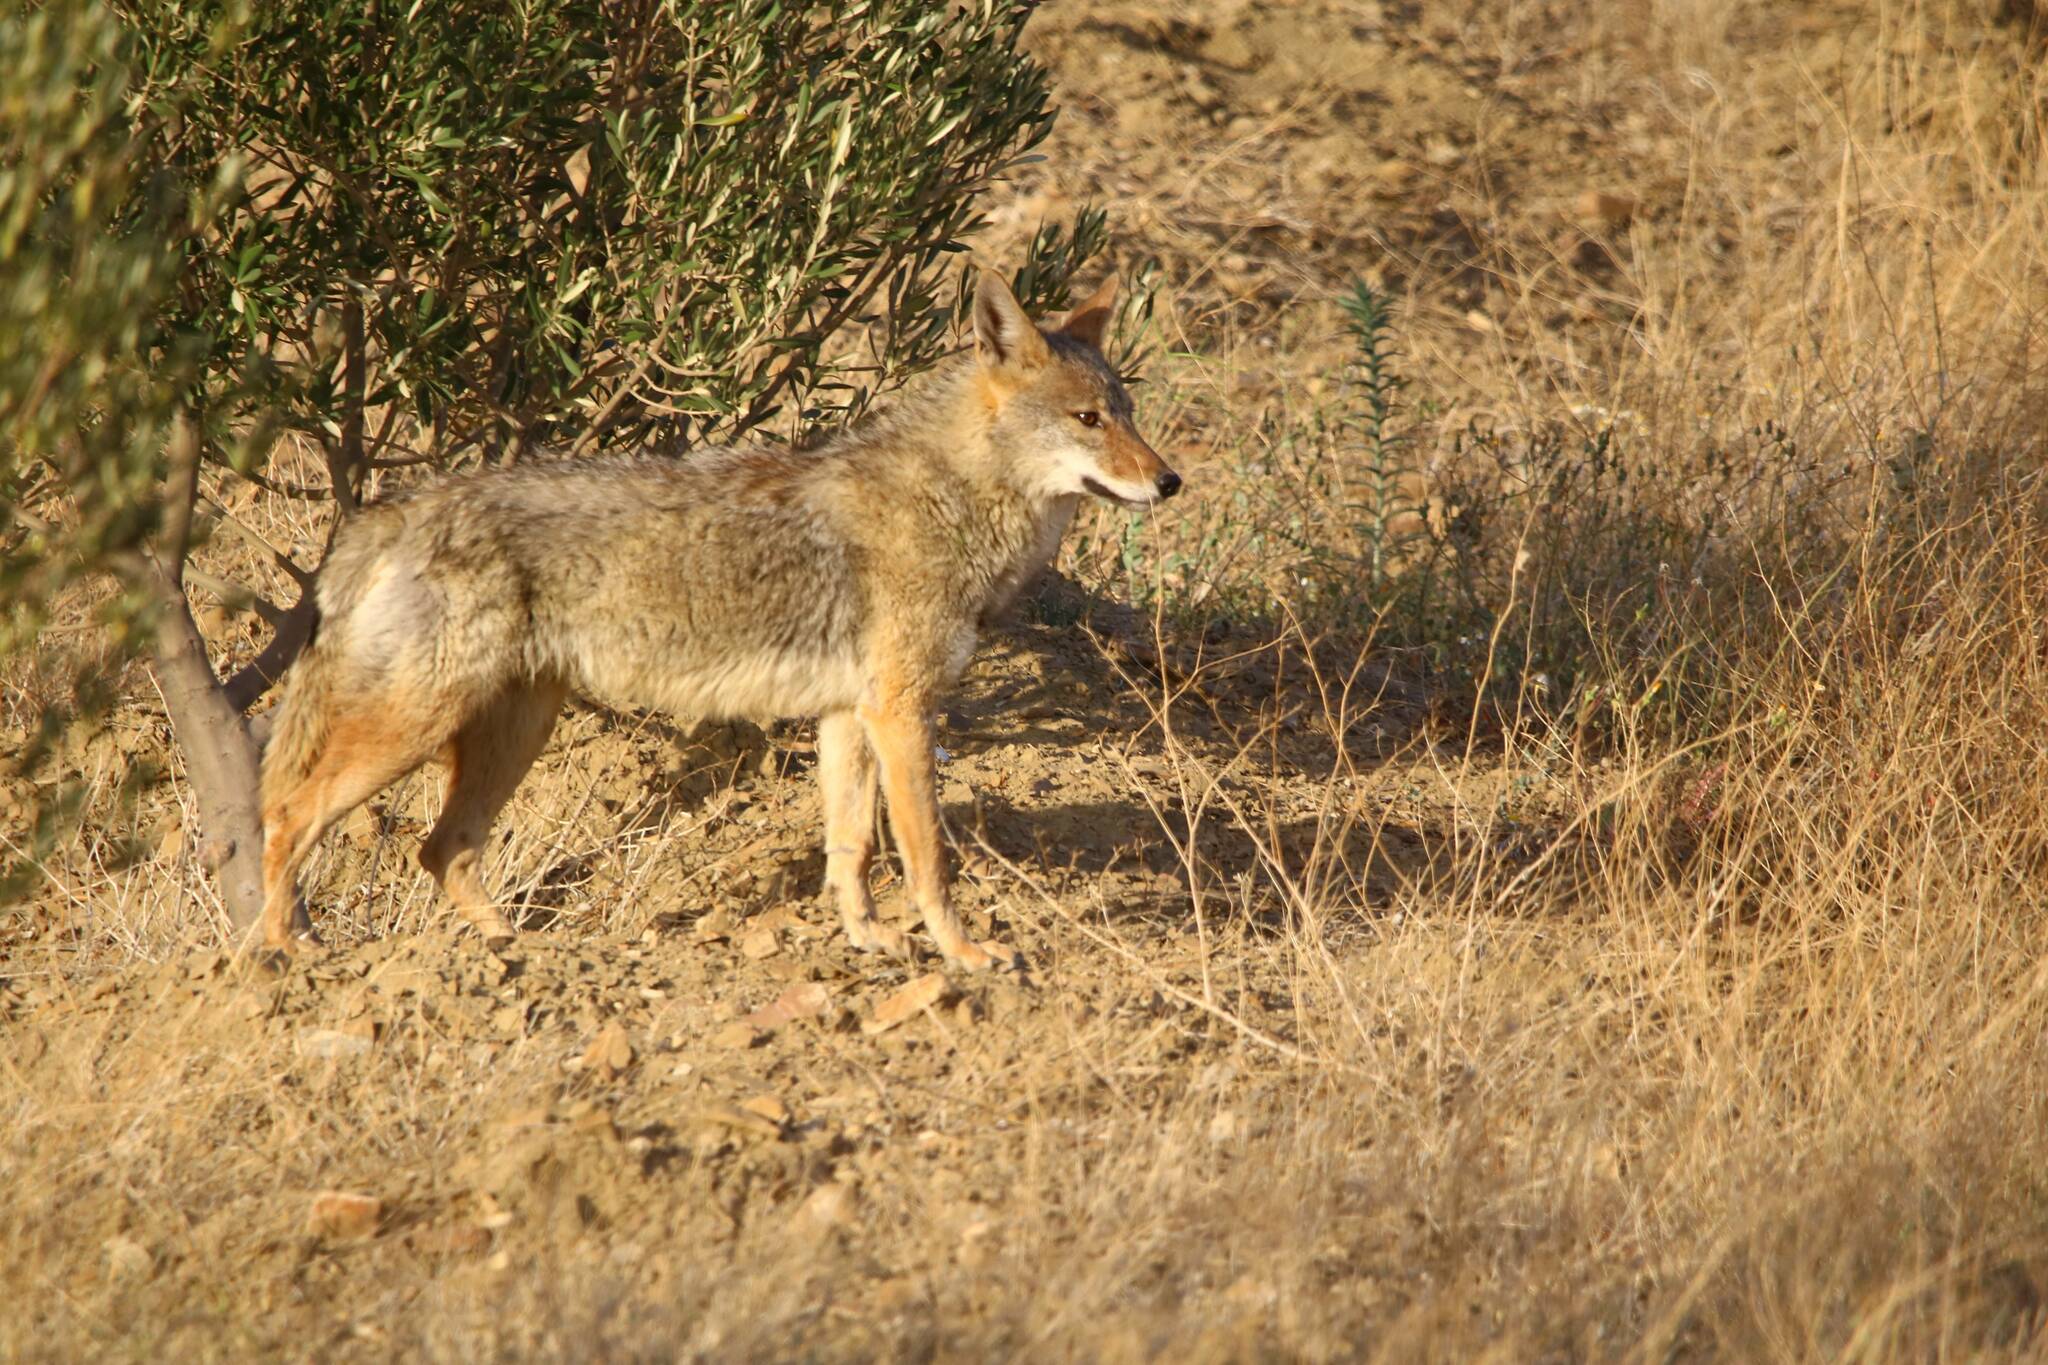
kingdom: Animalia
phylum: Chordata
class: Mammalia
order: Carnivora
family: Canidae
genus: Canis
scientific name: Canis lupaster
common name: African golden wolf
